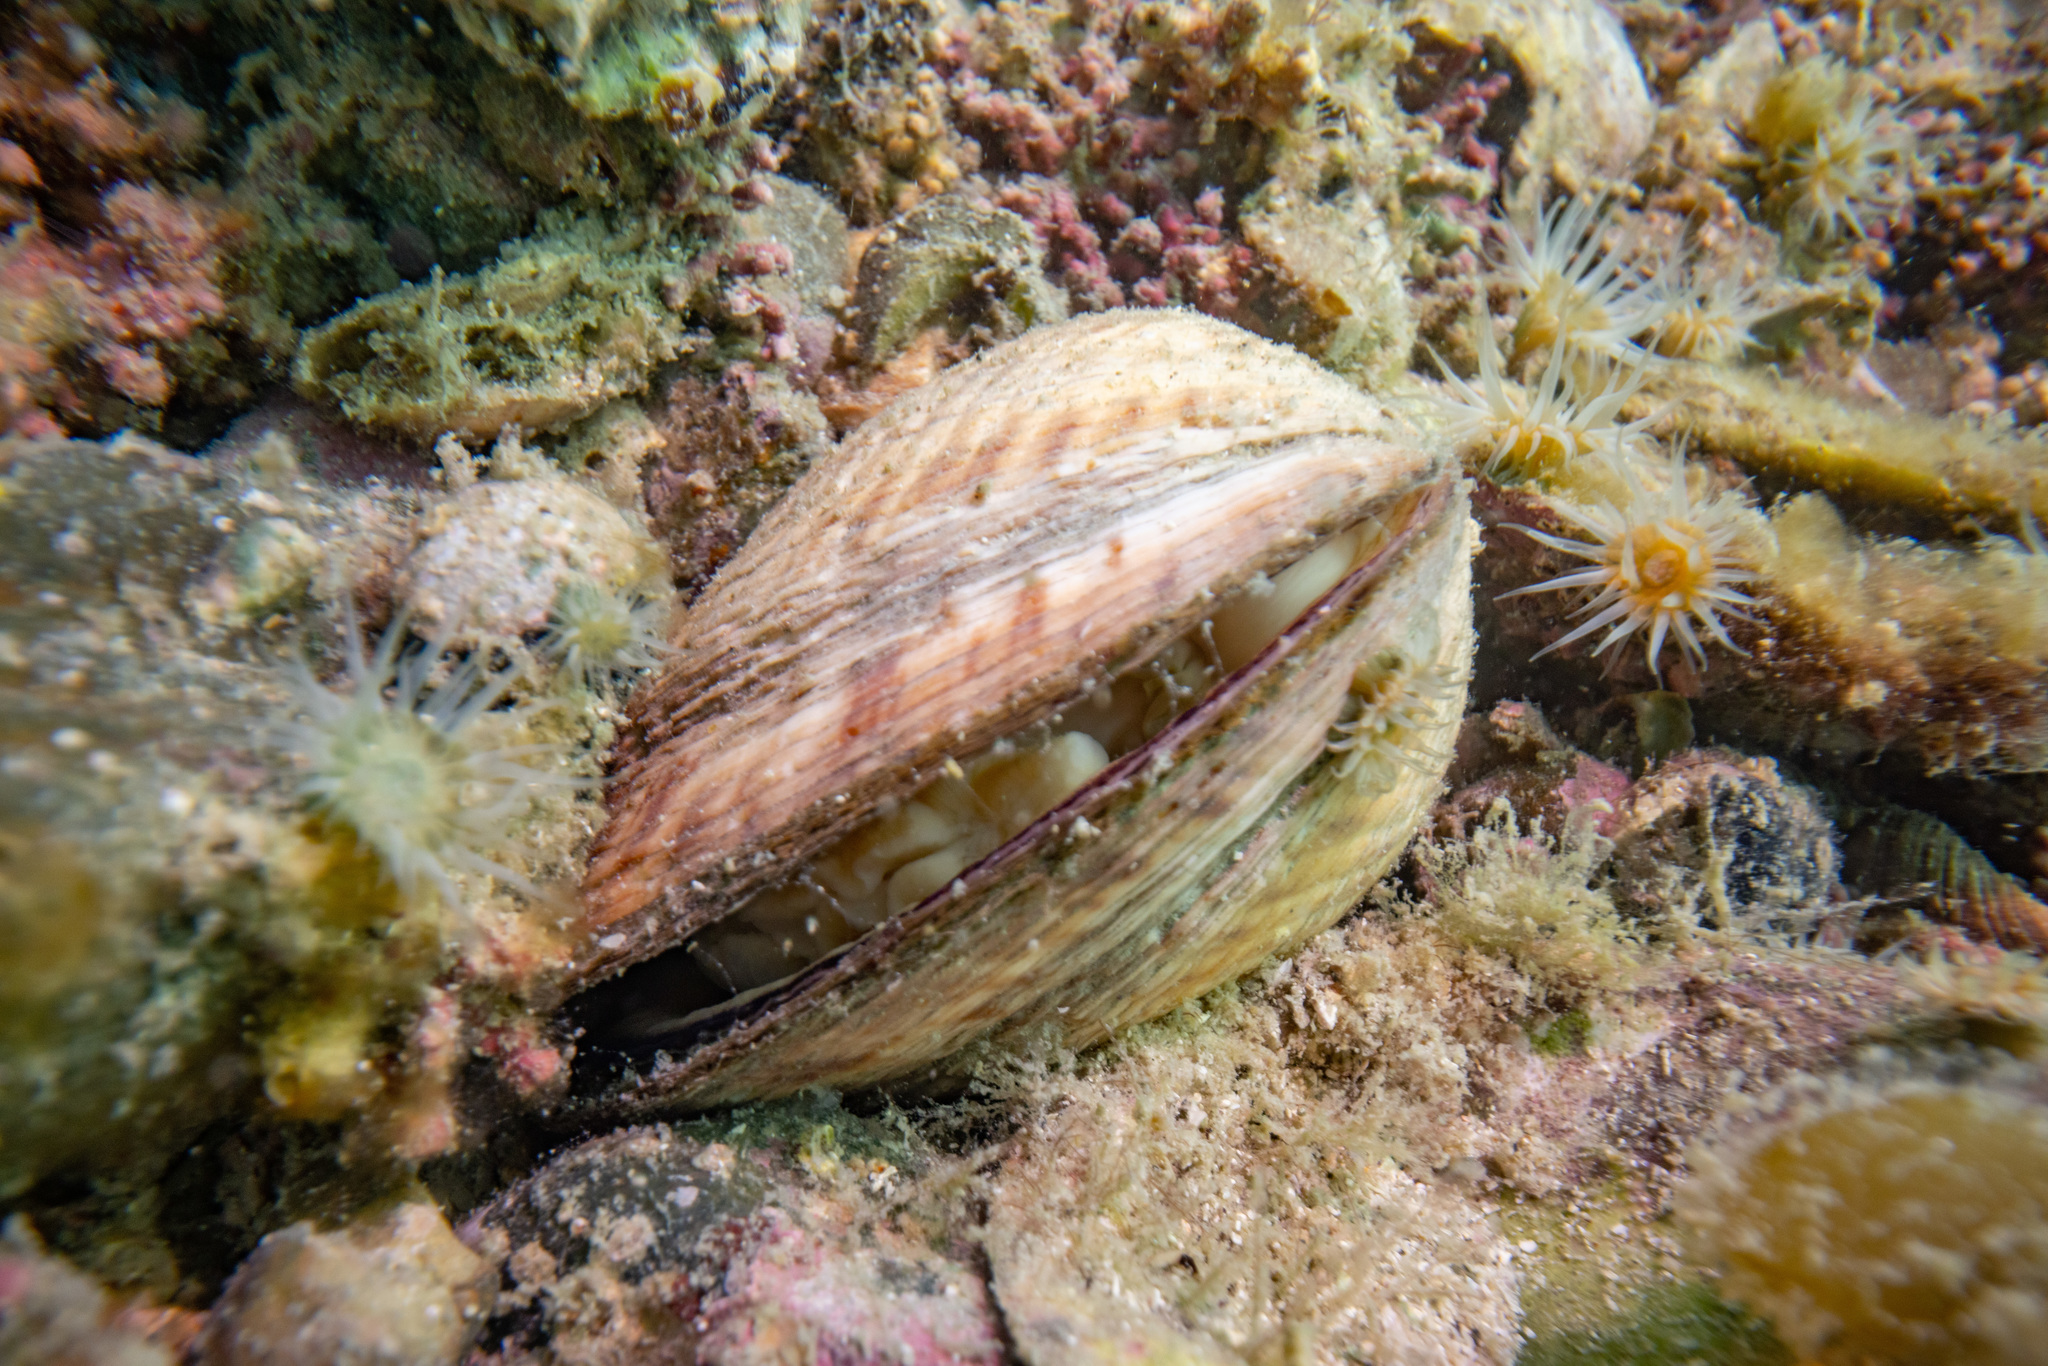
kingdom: Animalia
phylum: Mollusca
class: Bivalvia
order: Arcida
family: Glycymerididae
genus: Tucetona
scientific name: Tucetona laticostata
